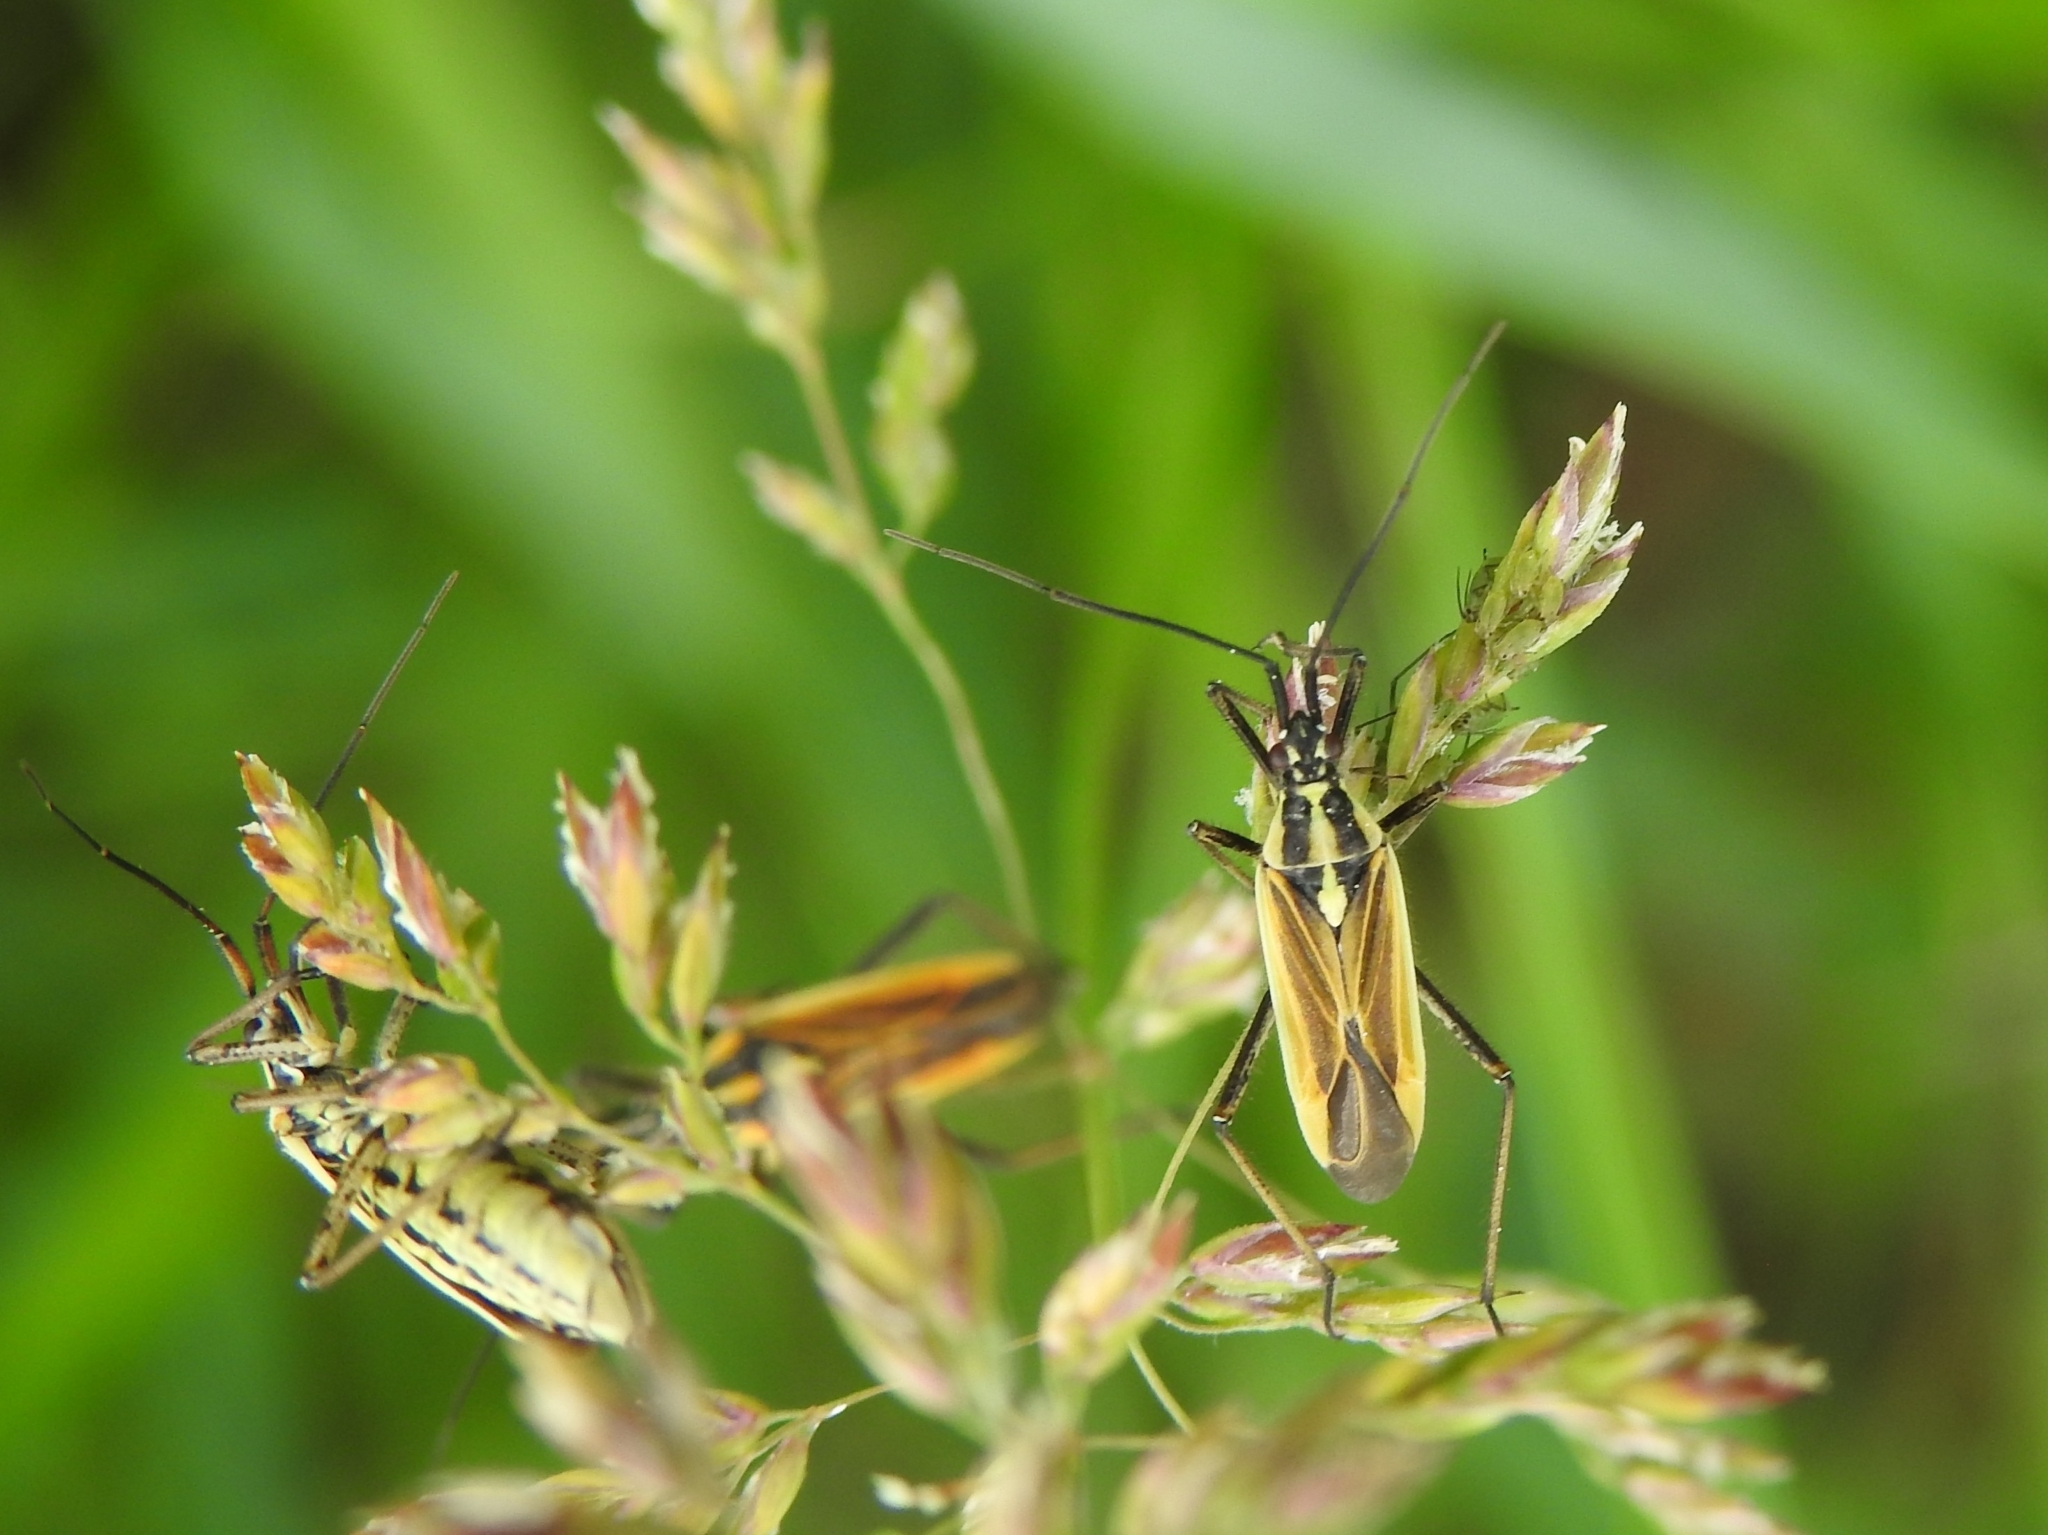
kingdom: Animalia
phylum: Arthropoda
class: Insecta
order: Hemiptera
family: Miridae
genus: Leptopterna
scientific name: Leptopterna dolabrata
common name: Meadow plant bug
